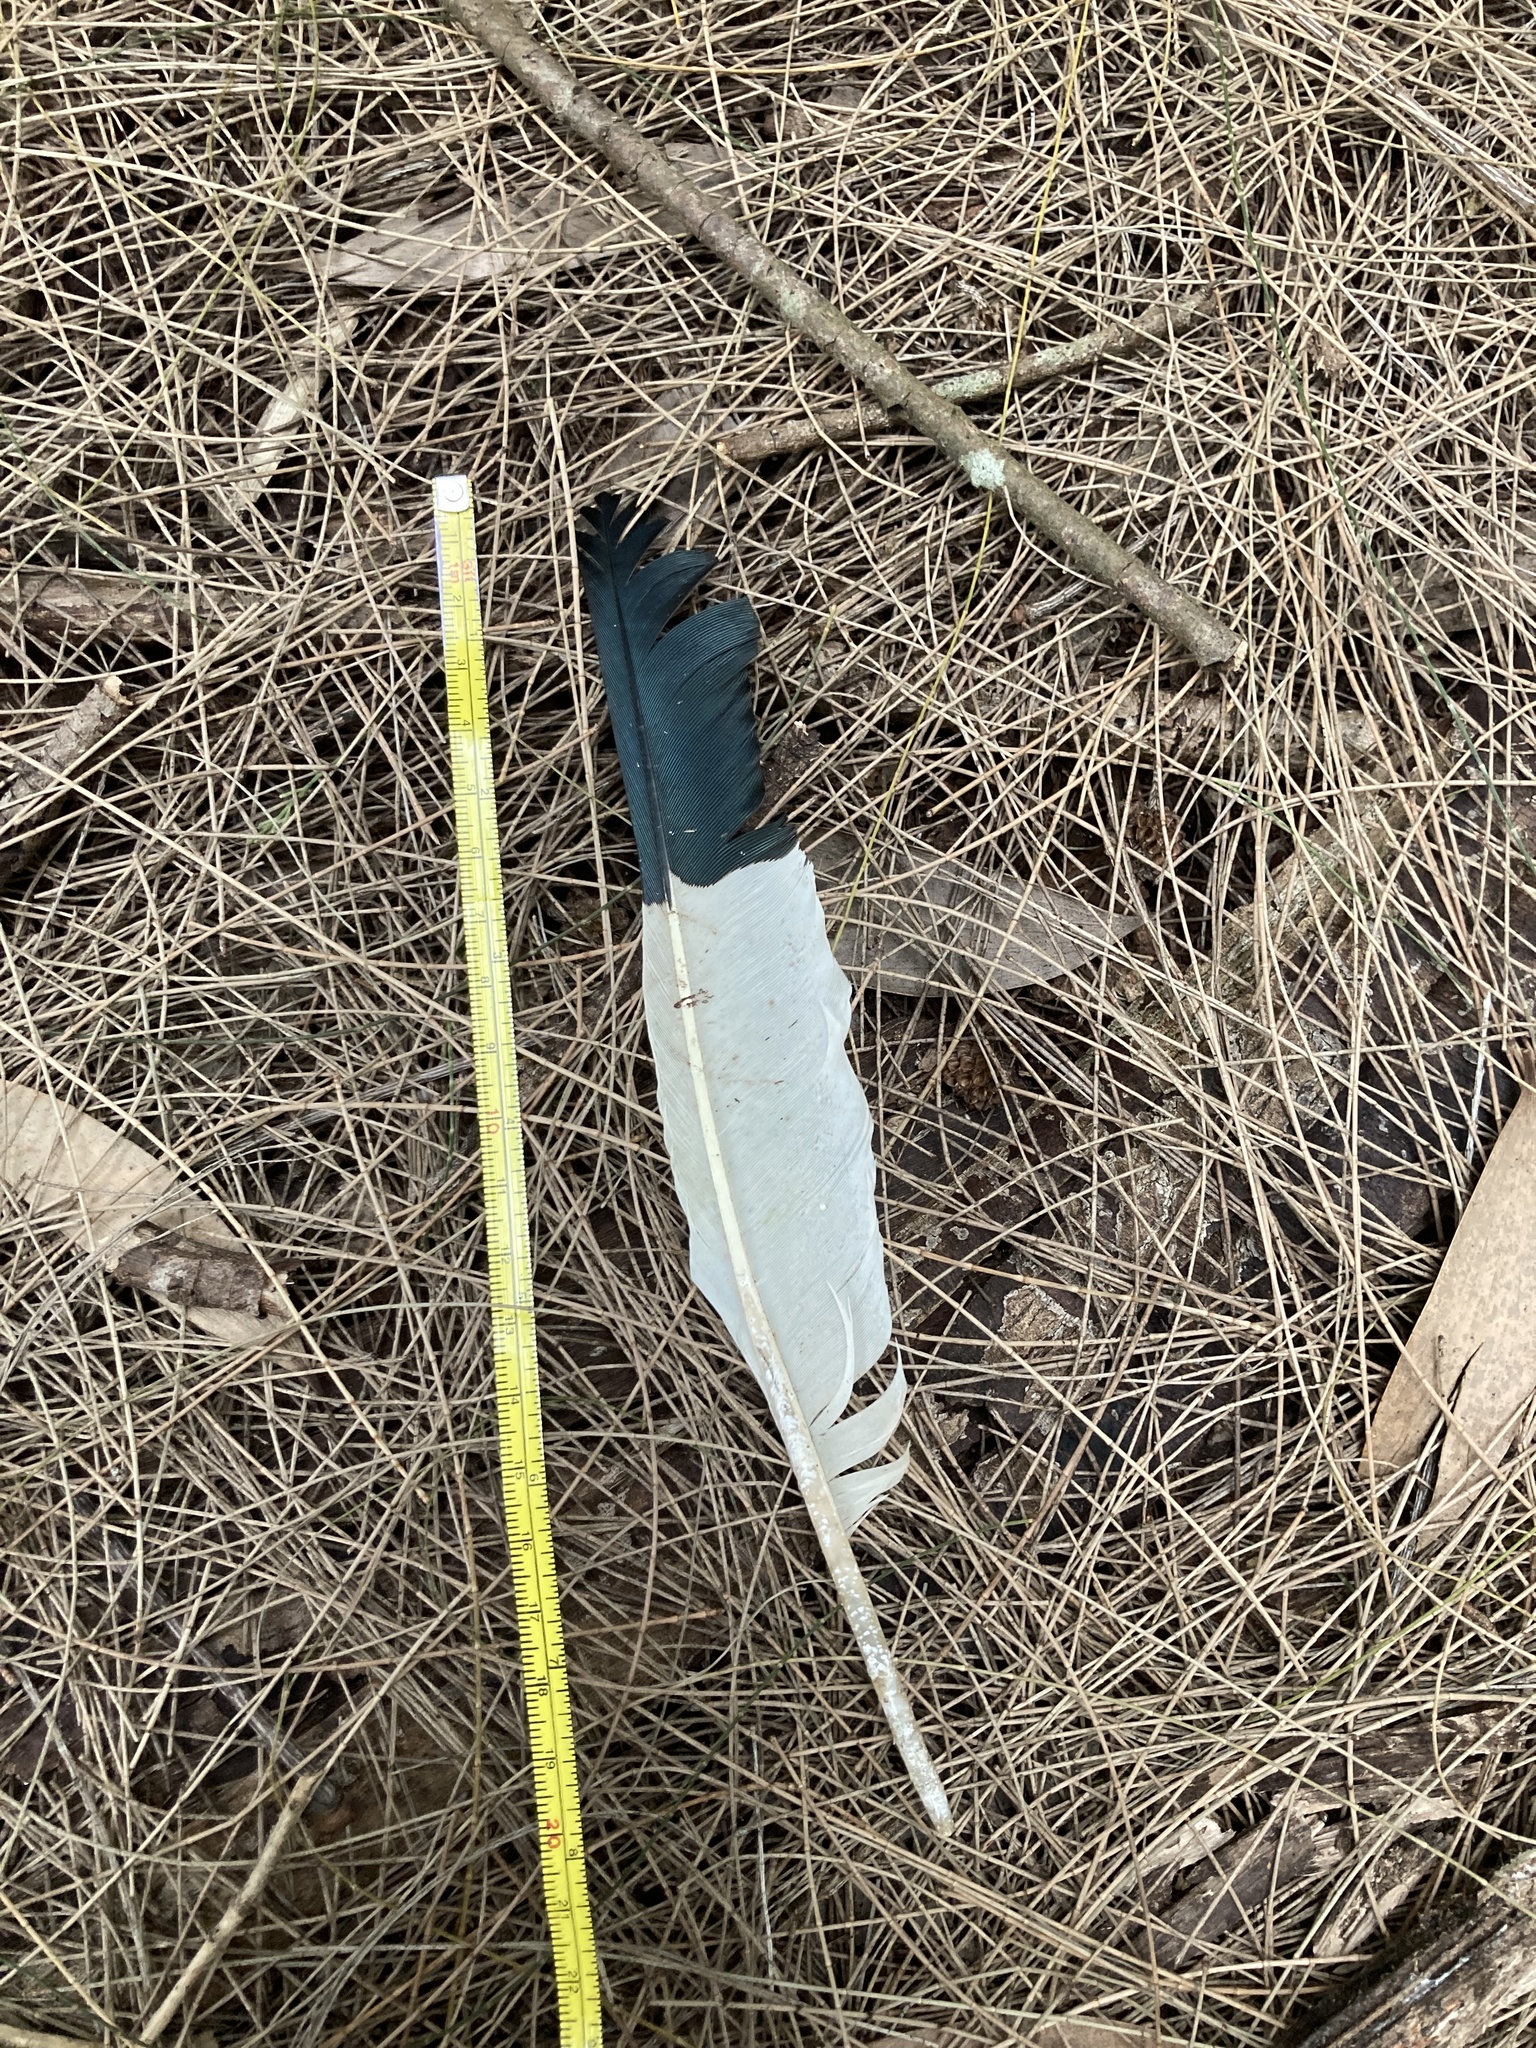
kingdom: Animalia
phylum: Chordata
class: Aves
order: Pelecaniformes
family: Threskiornithidae
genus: Eudocimus
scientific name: Eudocimus albus
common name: White ibis
